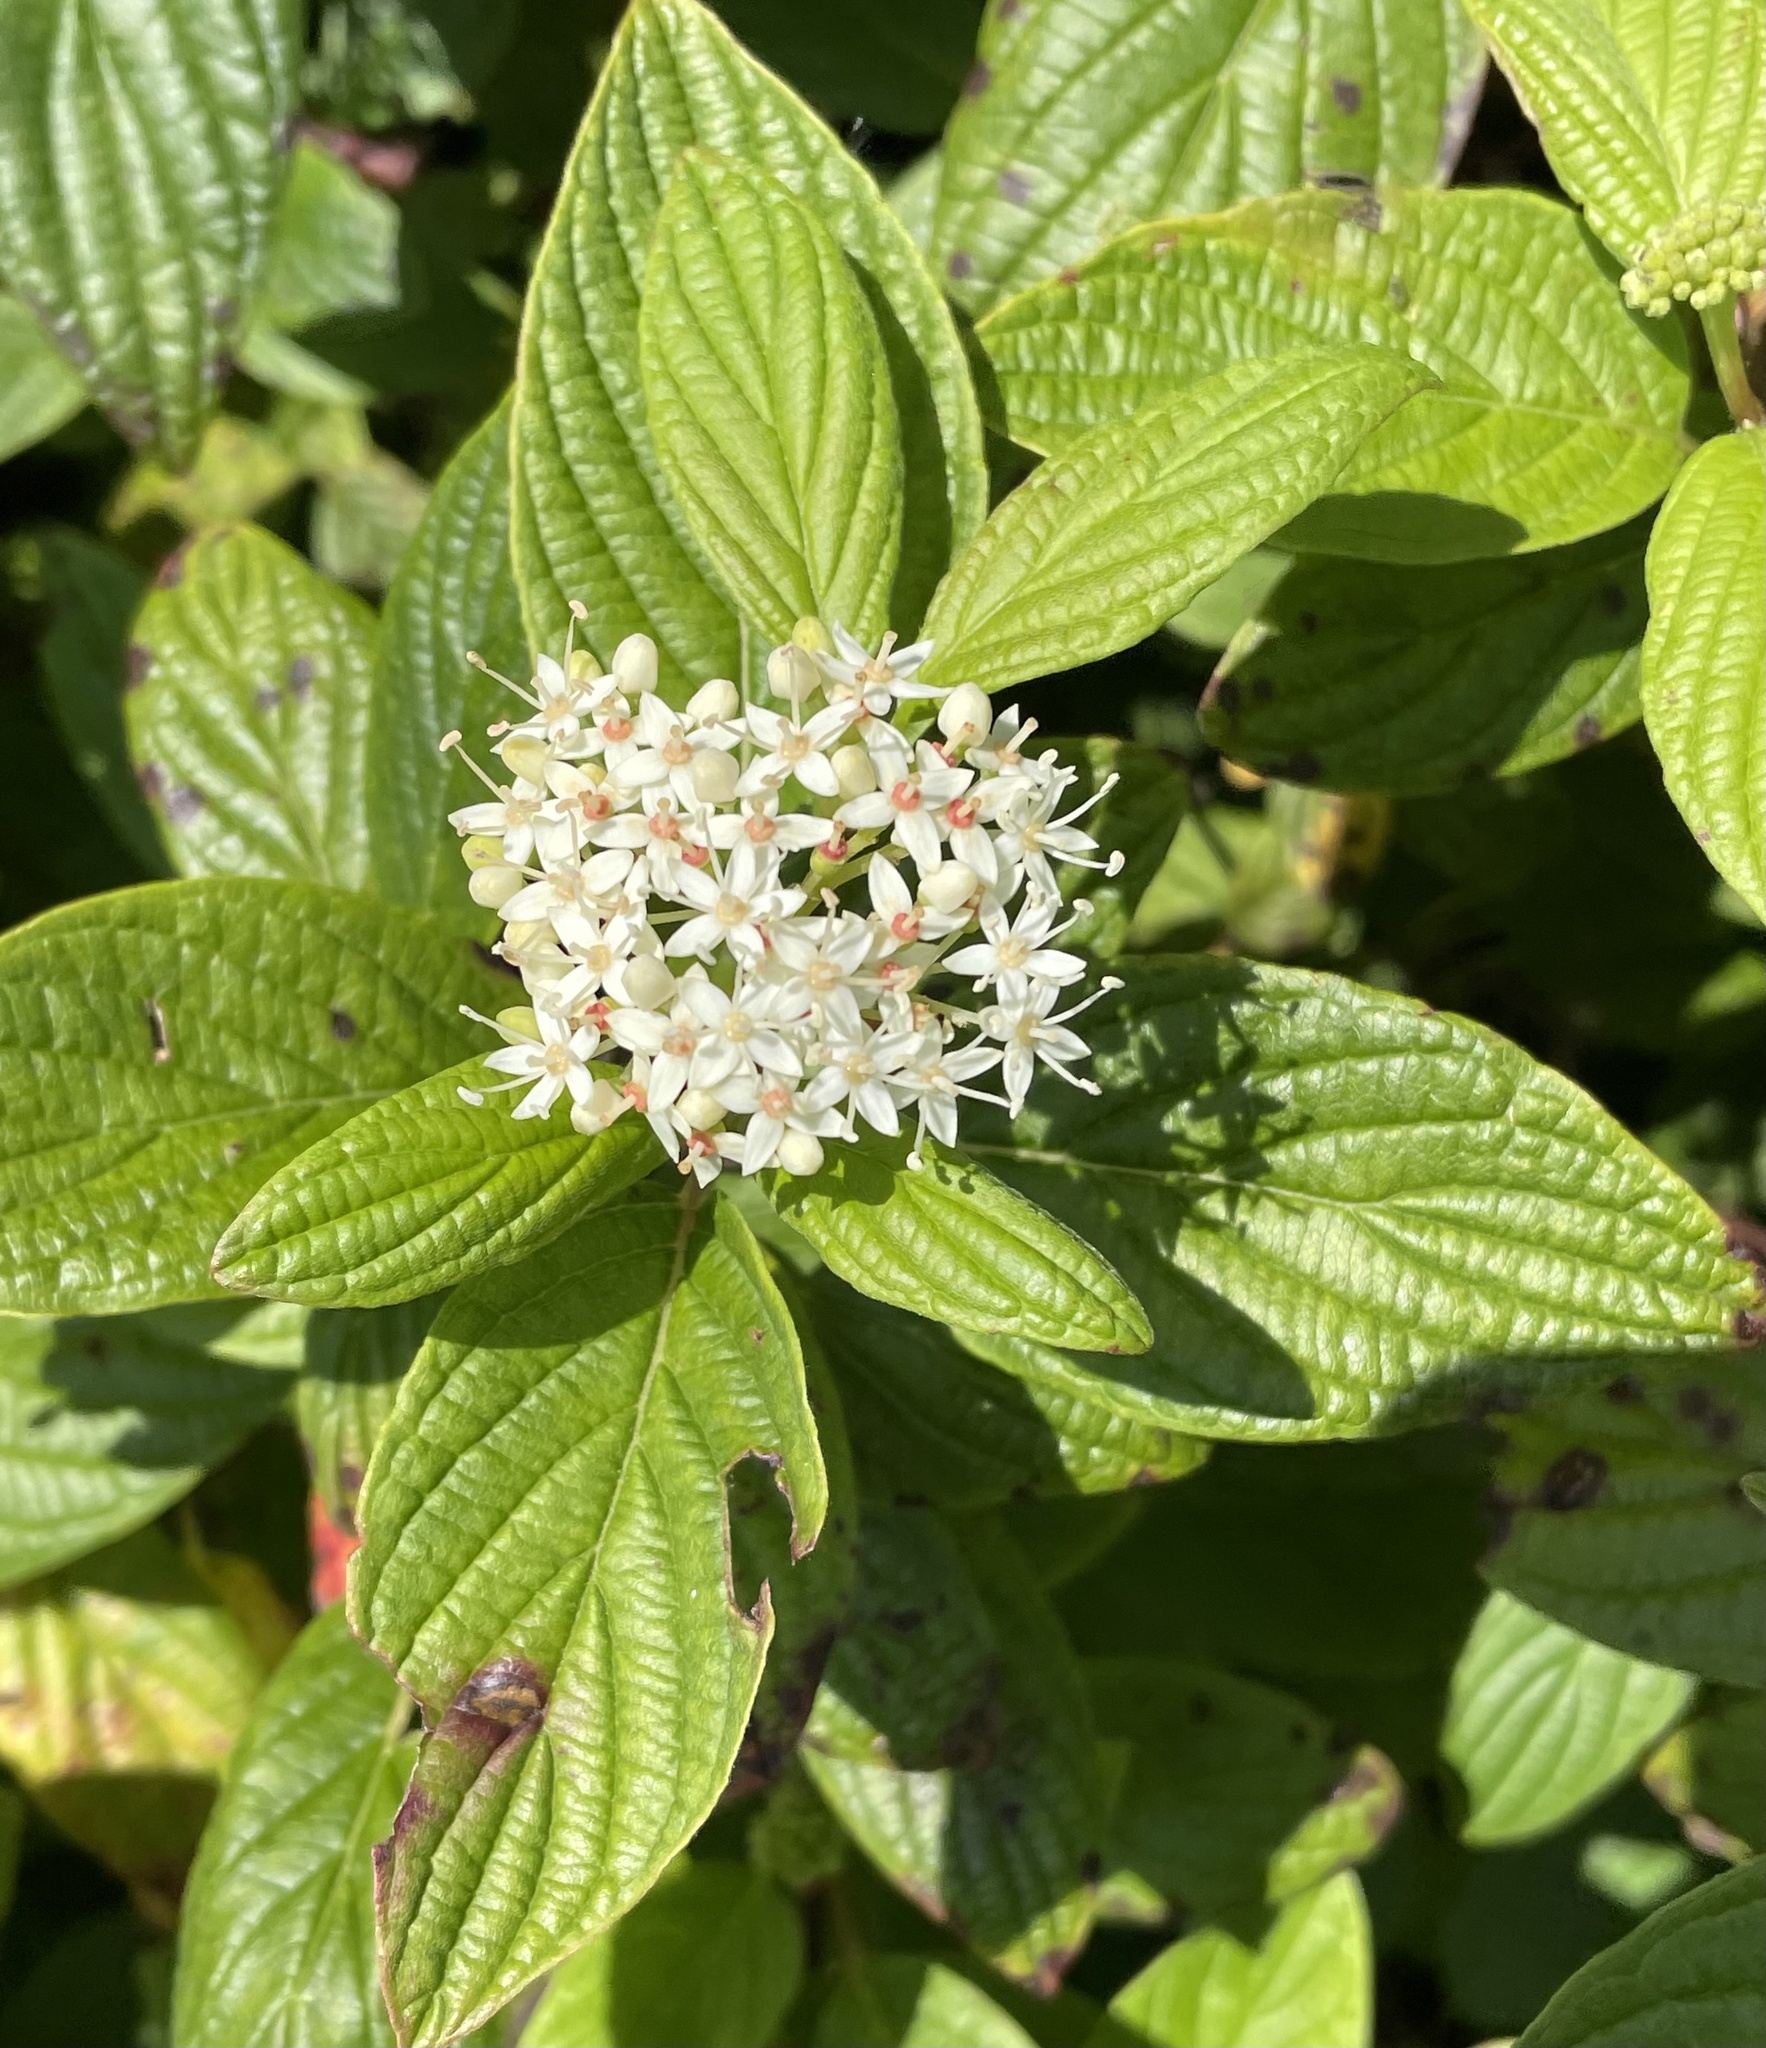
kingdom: Plantae
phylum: Tracheophyta
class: Magnoliopsida
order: Cornales
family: Cornaceae
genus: Cornus
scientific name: Cornus sericea
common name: Red-osier dogwood
